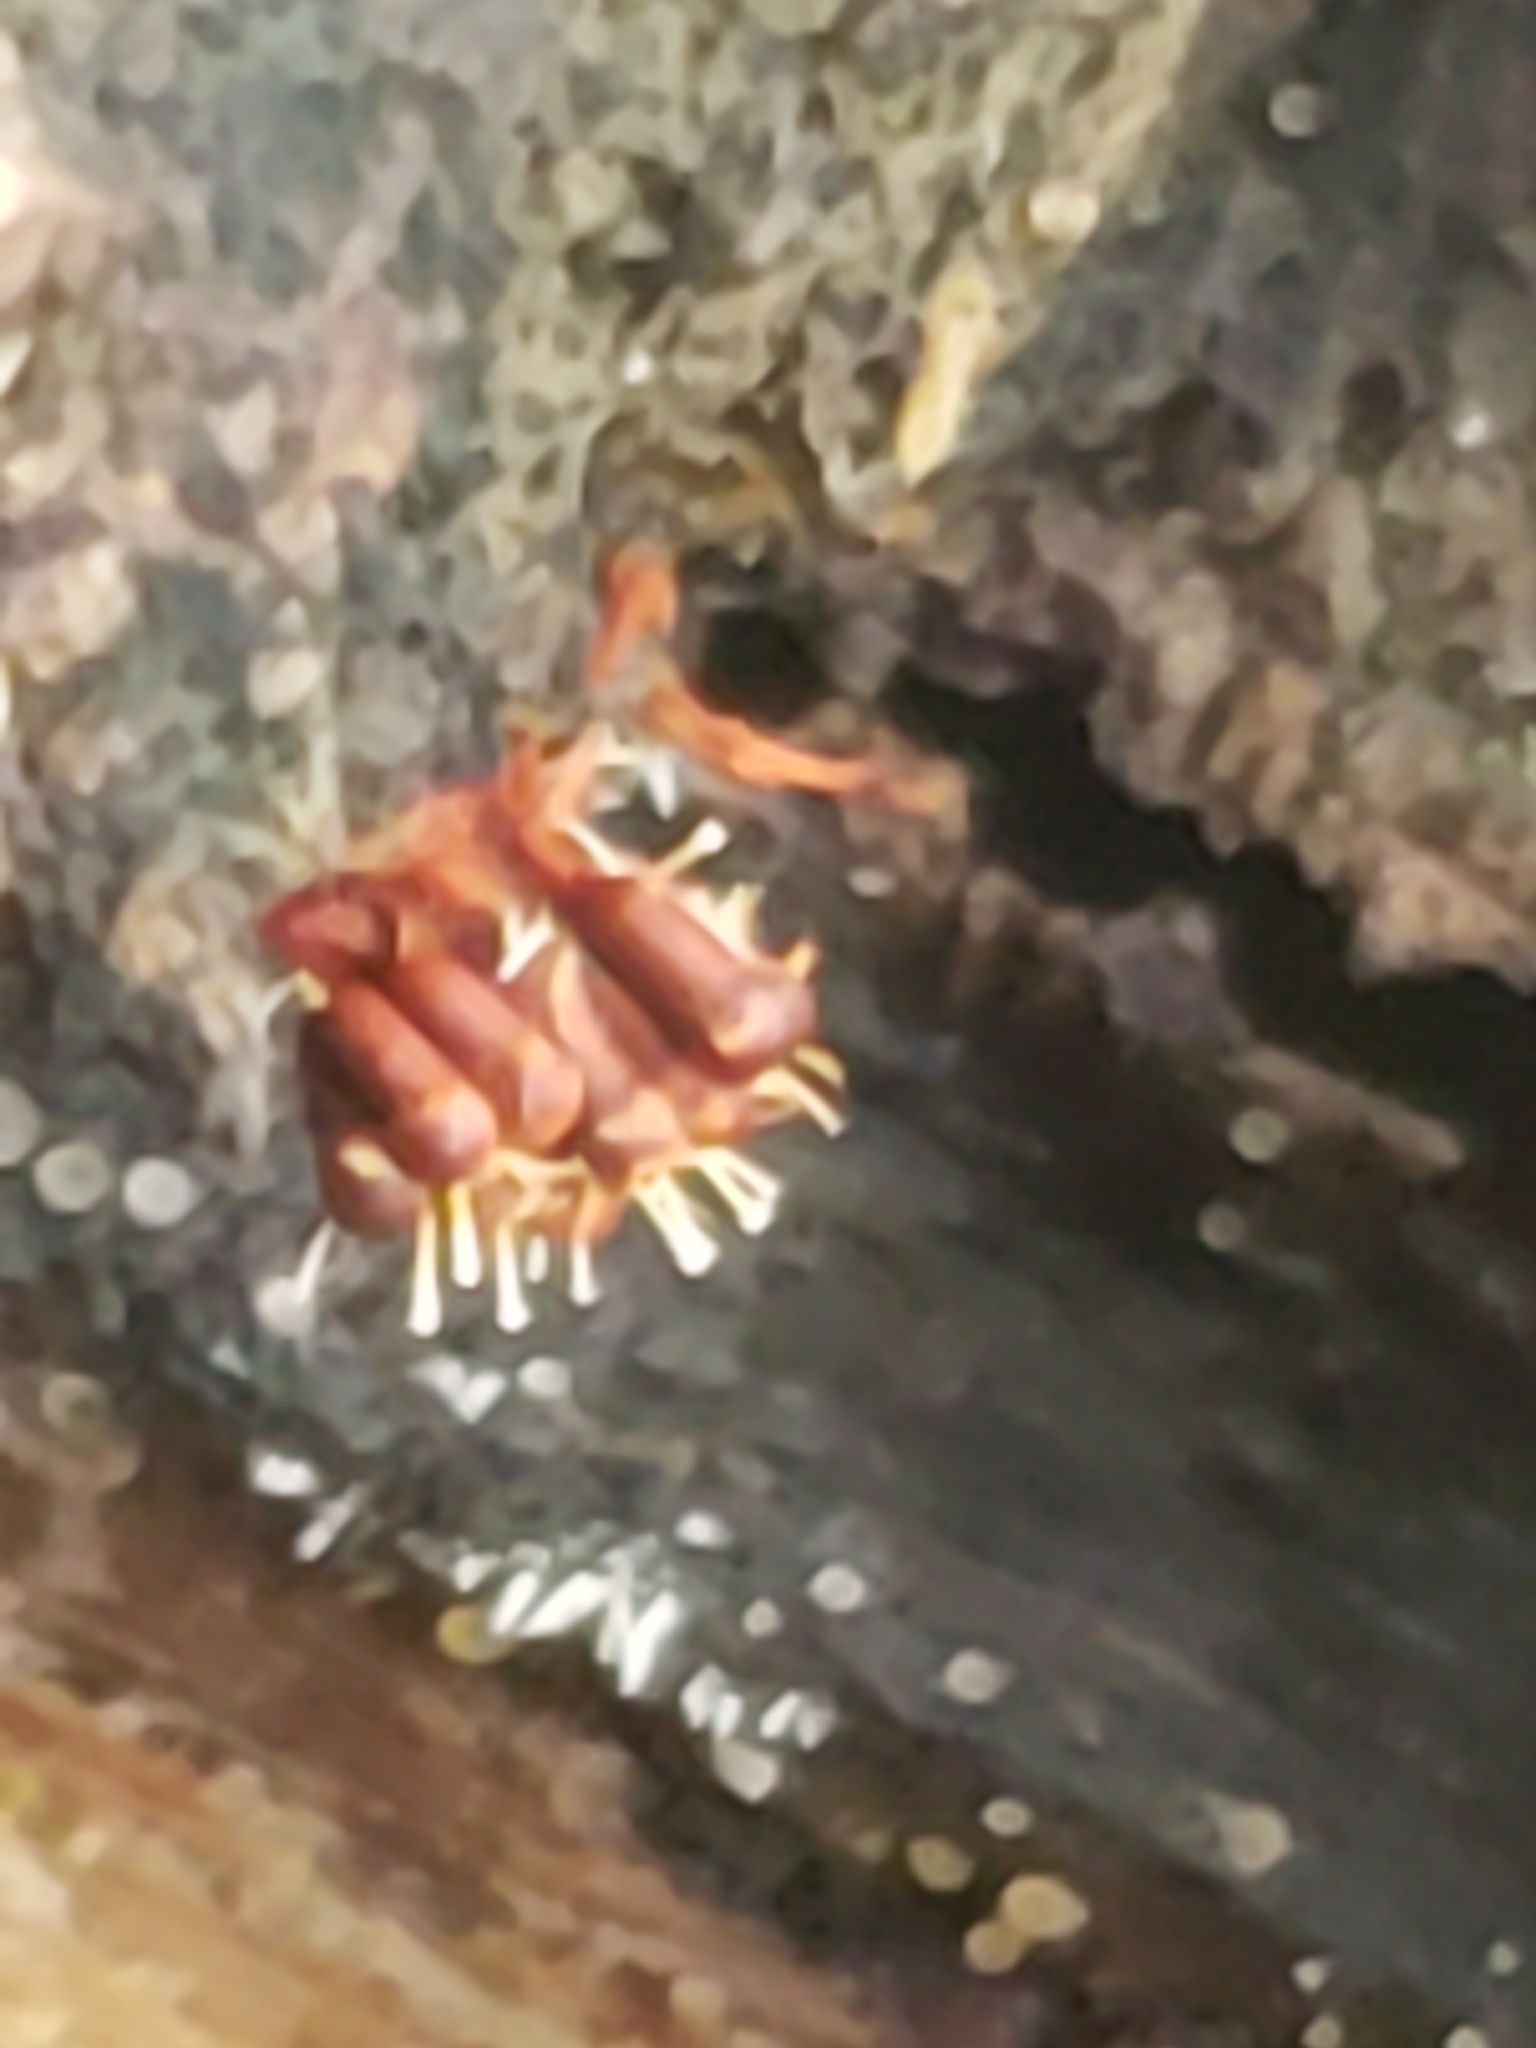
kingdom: Fungi
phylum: Ascomycota
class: Sordariomycetes
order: Hypocreales
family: Ophiocordycipitaceae
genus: Polycephalomyces
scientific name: Polycephalomyces tomentosus
